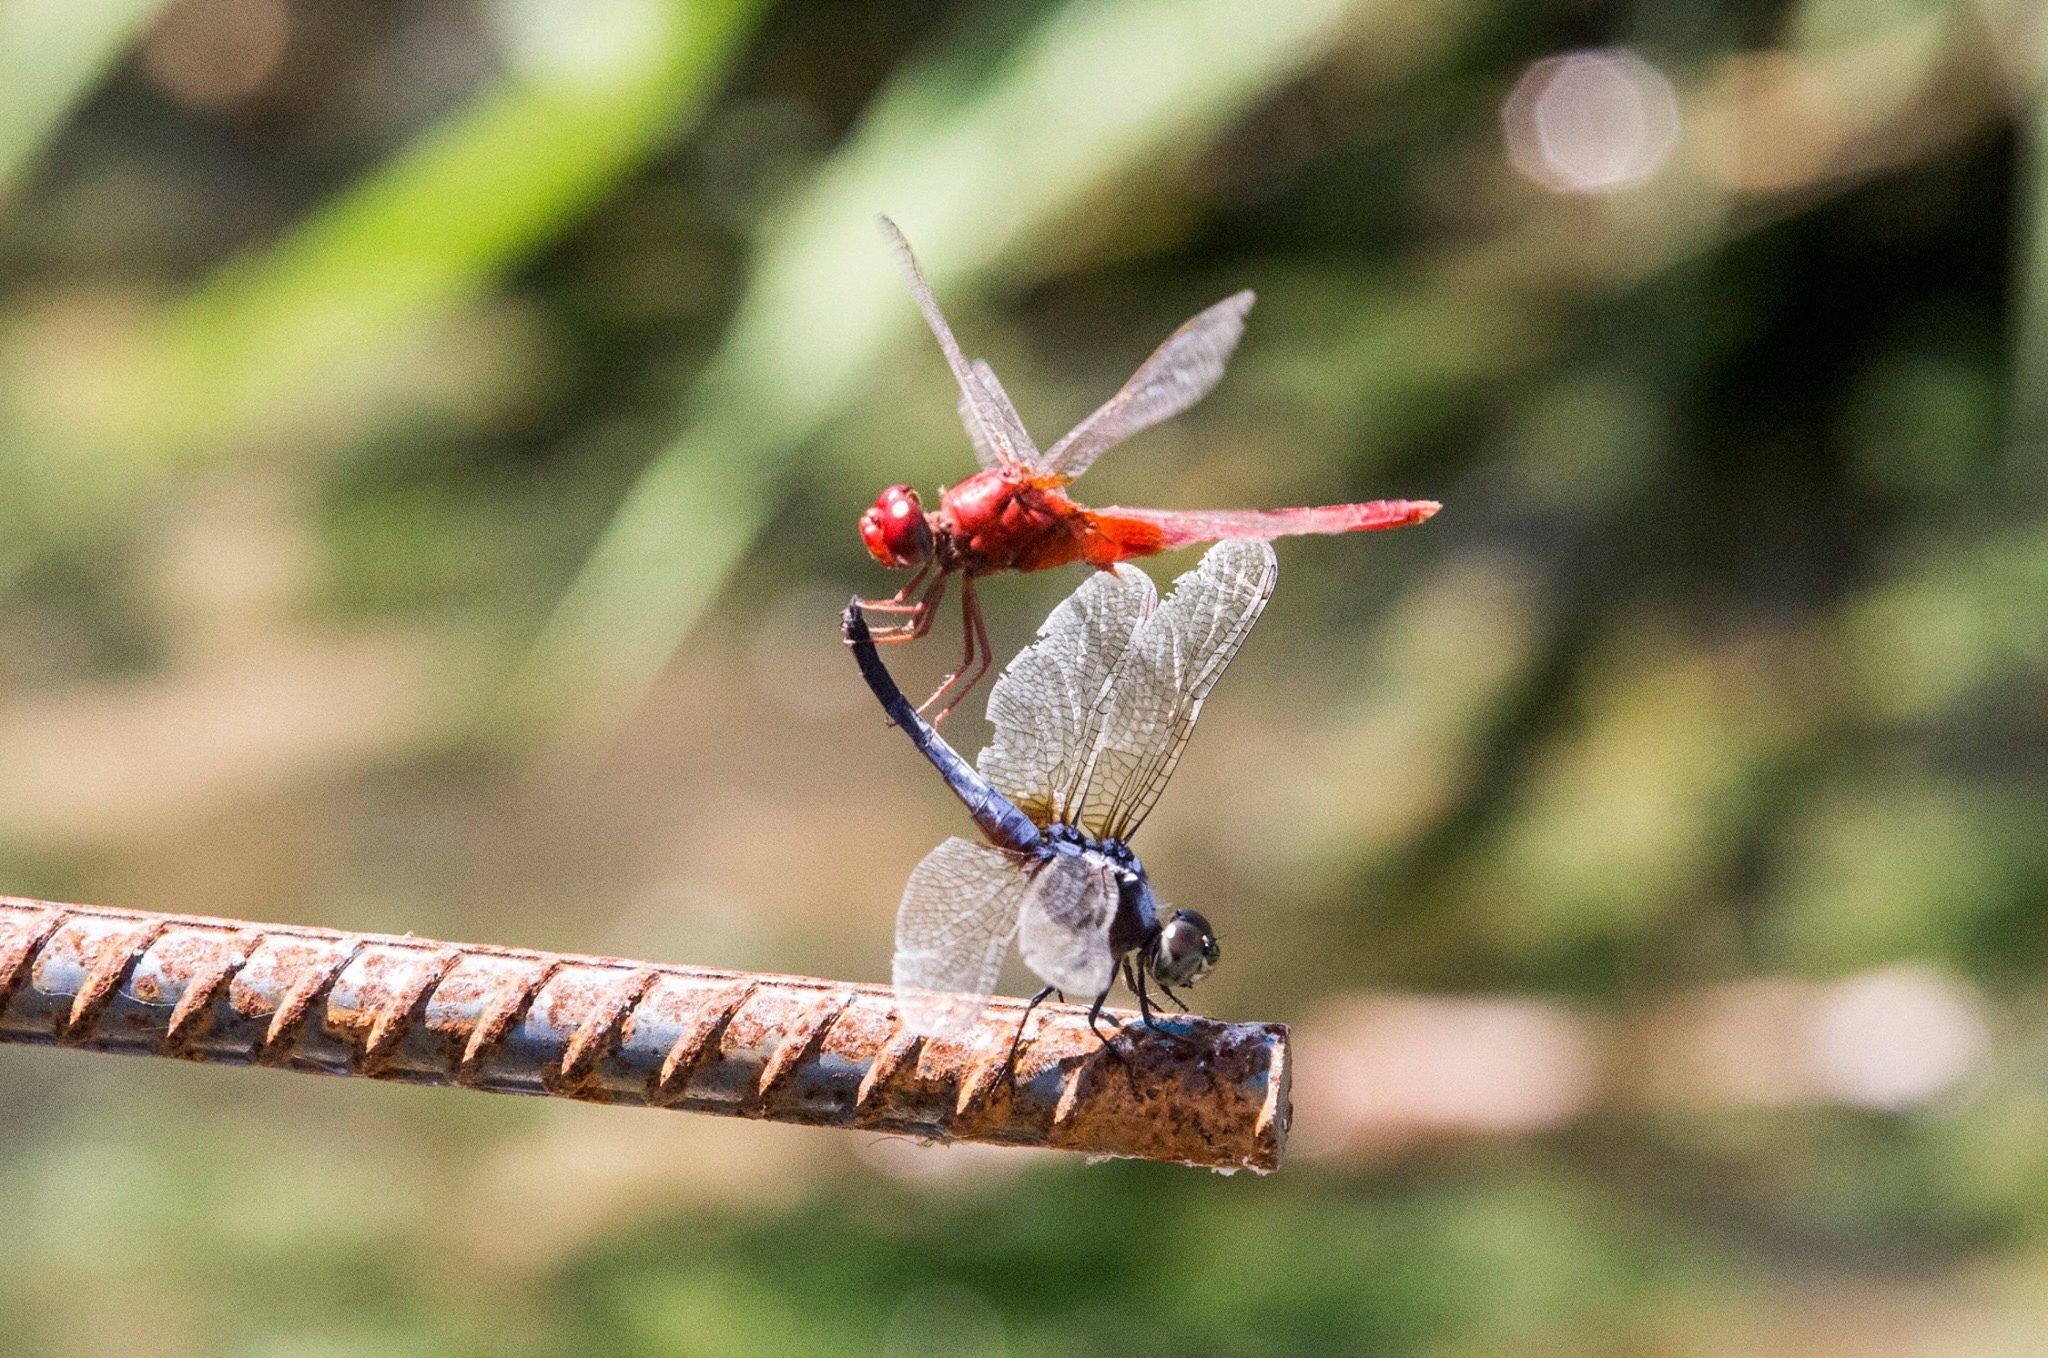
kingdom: Animalia
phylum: Arthropoda
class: Insecta
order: Odonata
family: Libellulidae
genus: Crocothemis
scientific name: Crocothemis servilia
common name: Scarlet skimmer
